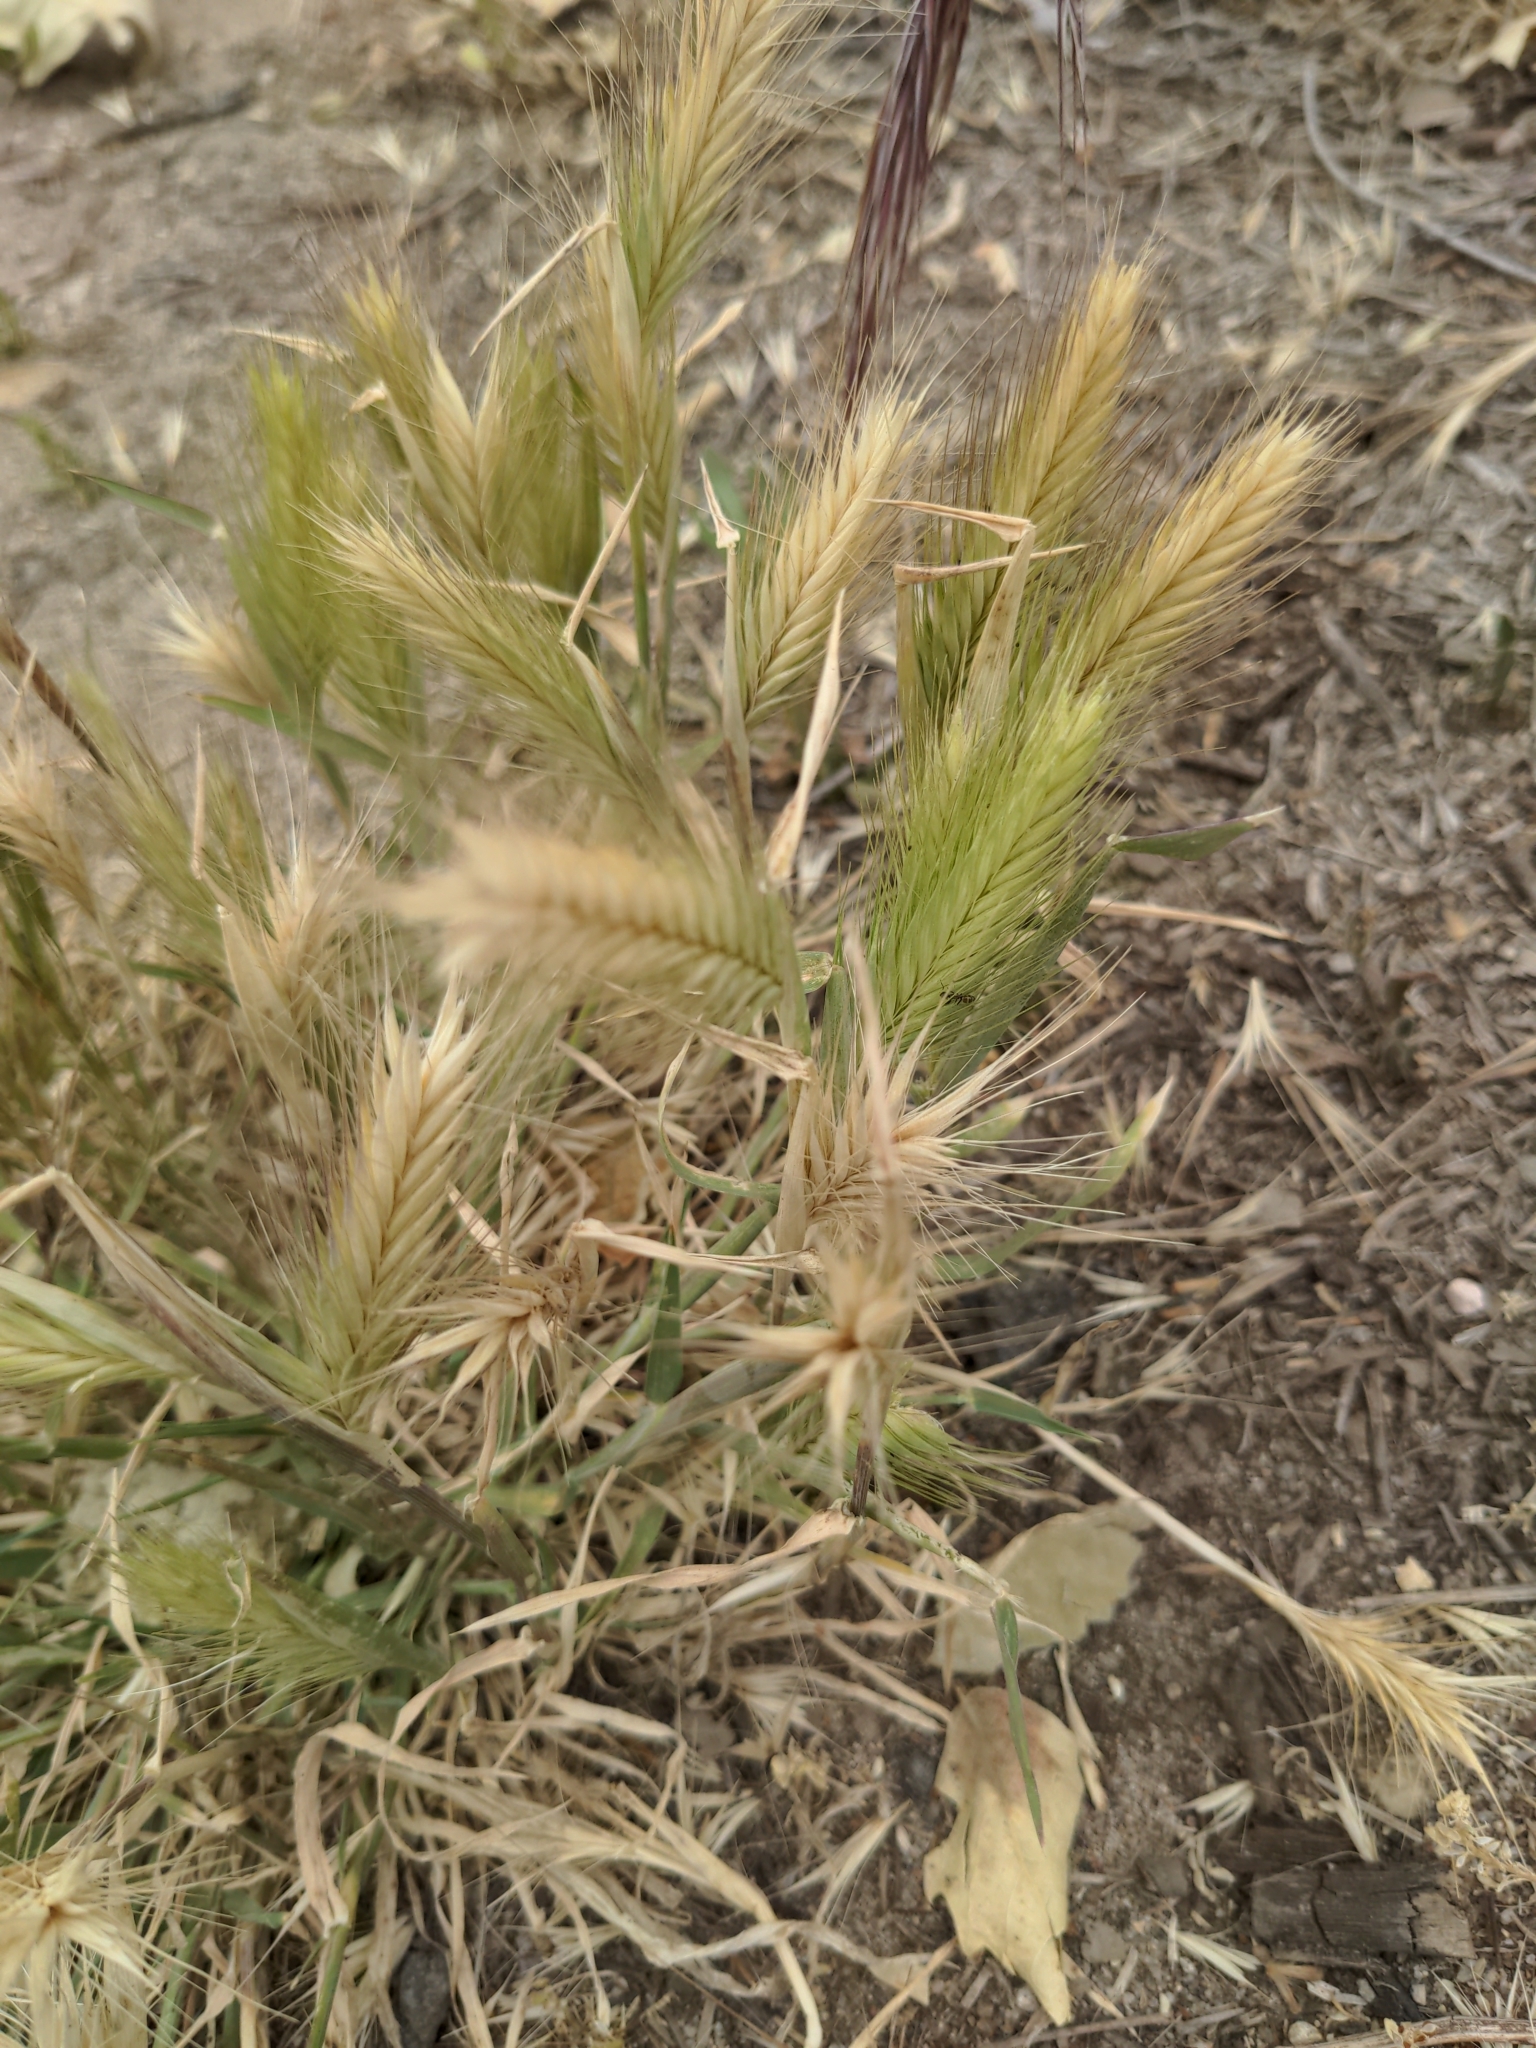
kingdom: Plantae
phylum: Tracheophyta
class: Liliopsida
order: Poales
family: Poaceae
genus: Hordeum
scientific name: Hordeum murinum
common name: Wall barley
